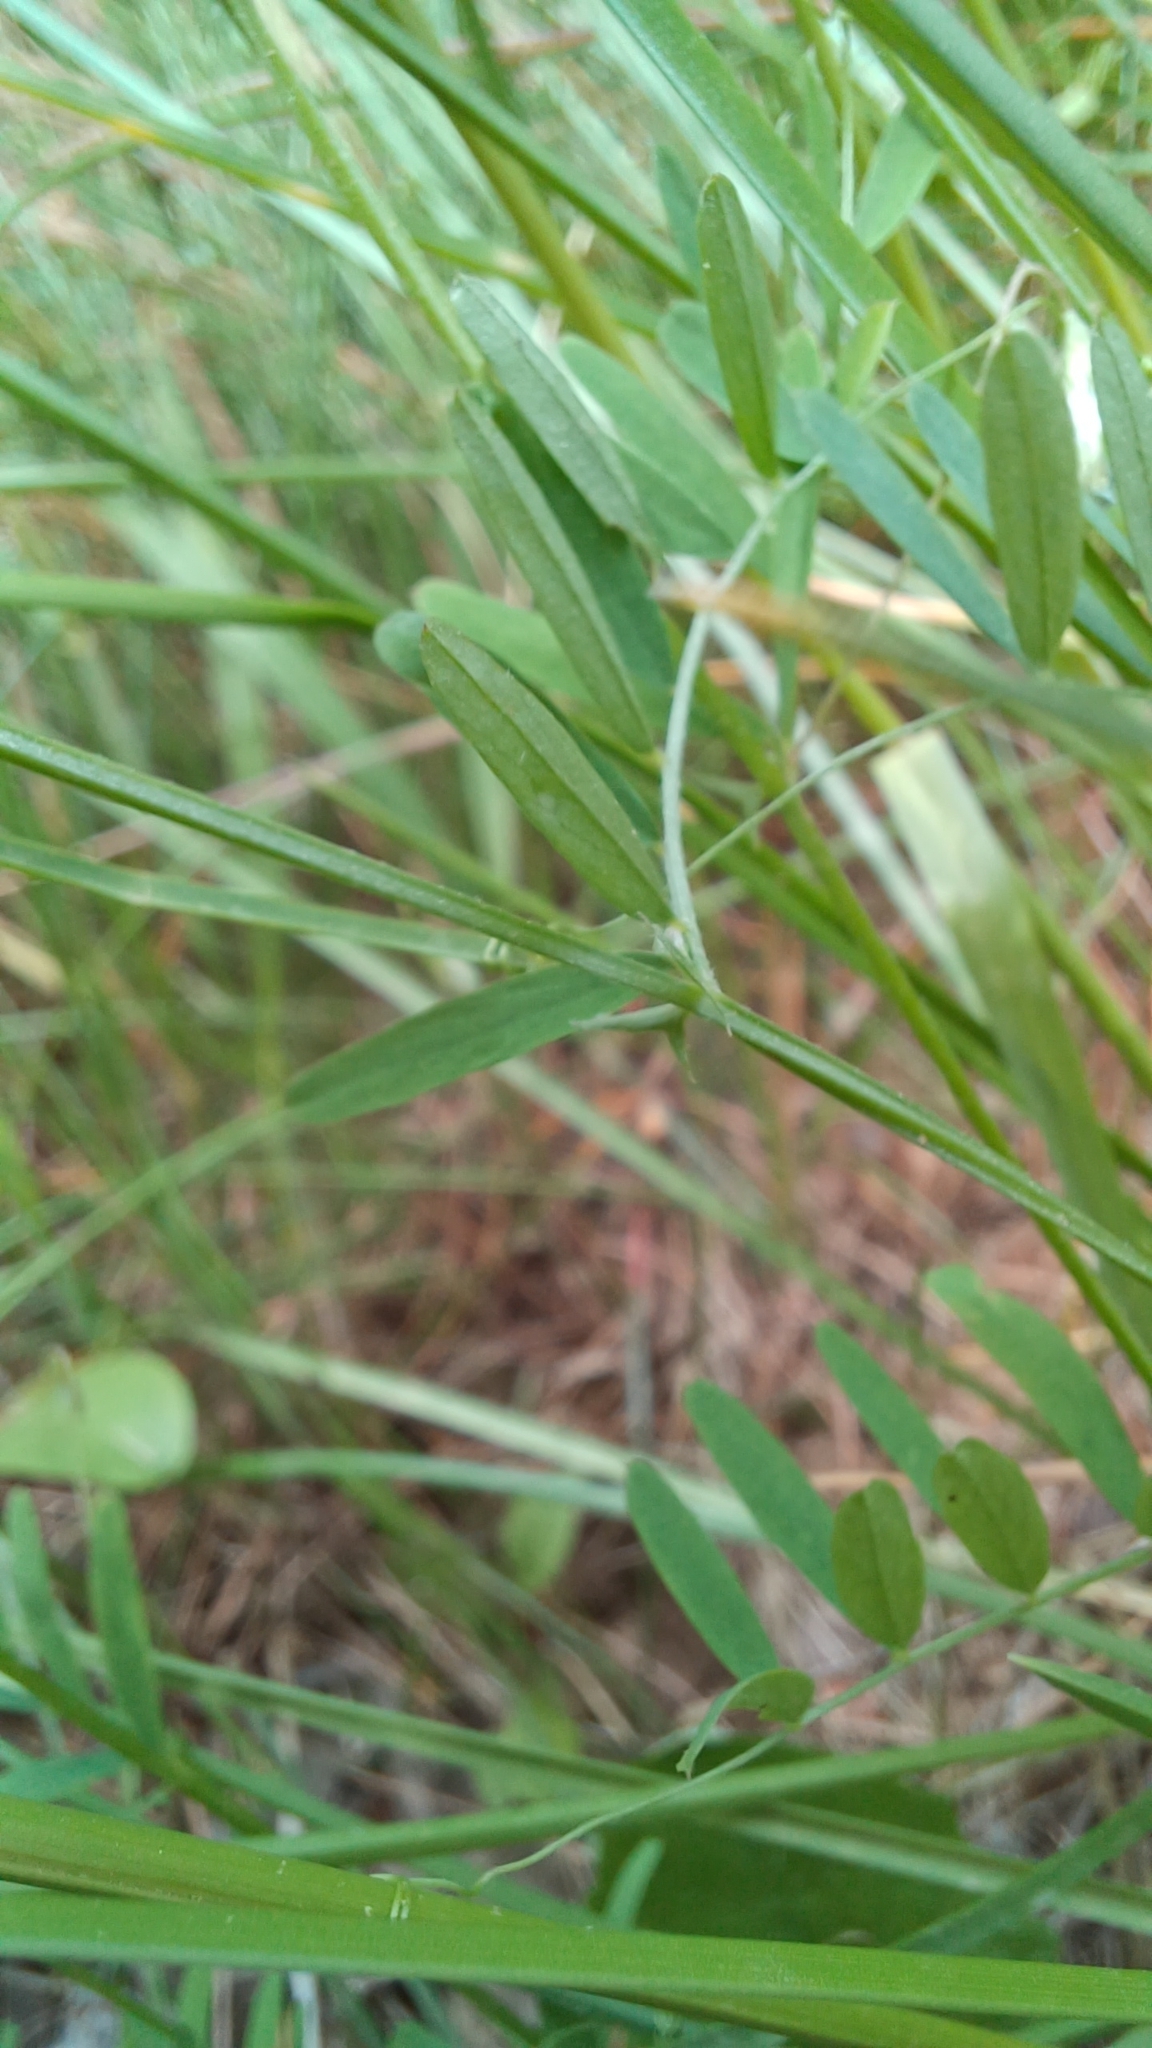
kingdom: Plantae
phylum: Tracheophyta
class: Magnoliopsida
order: Fabales
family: Fabaceae
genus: Vicia
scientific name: Vicia tetrasperma
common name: Smooth tare
